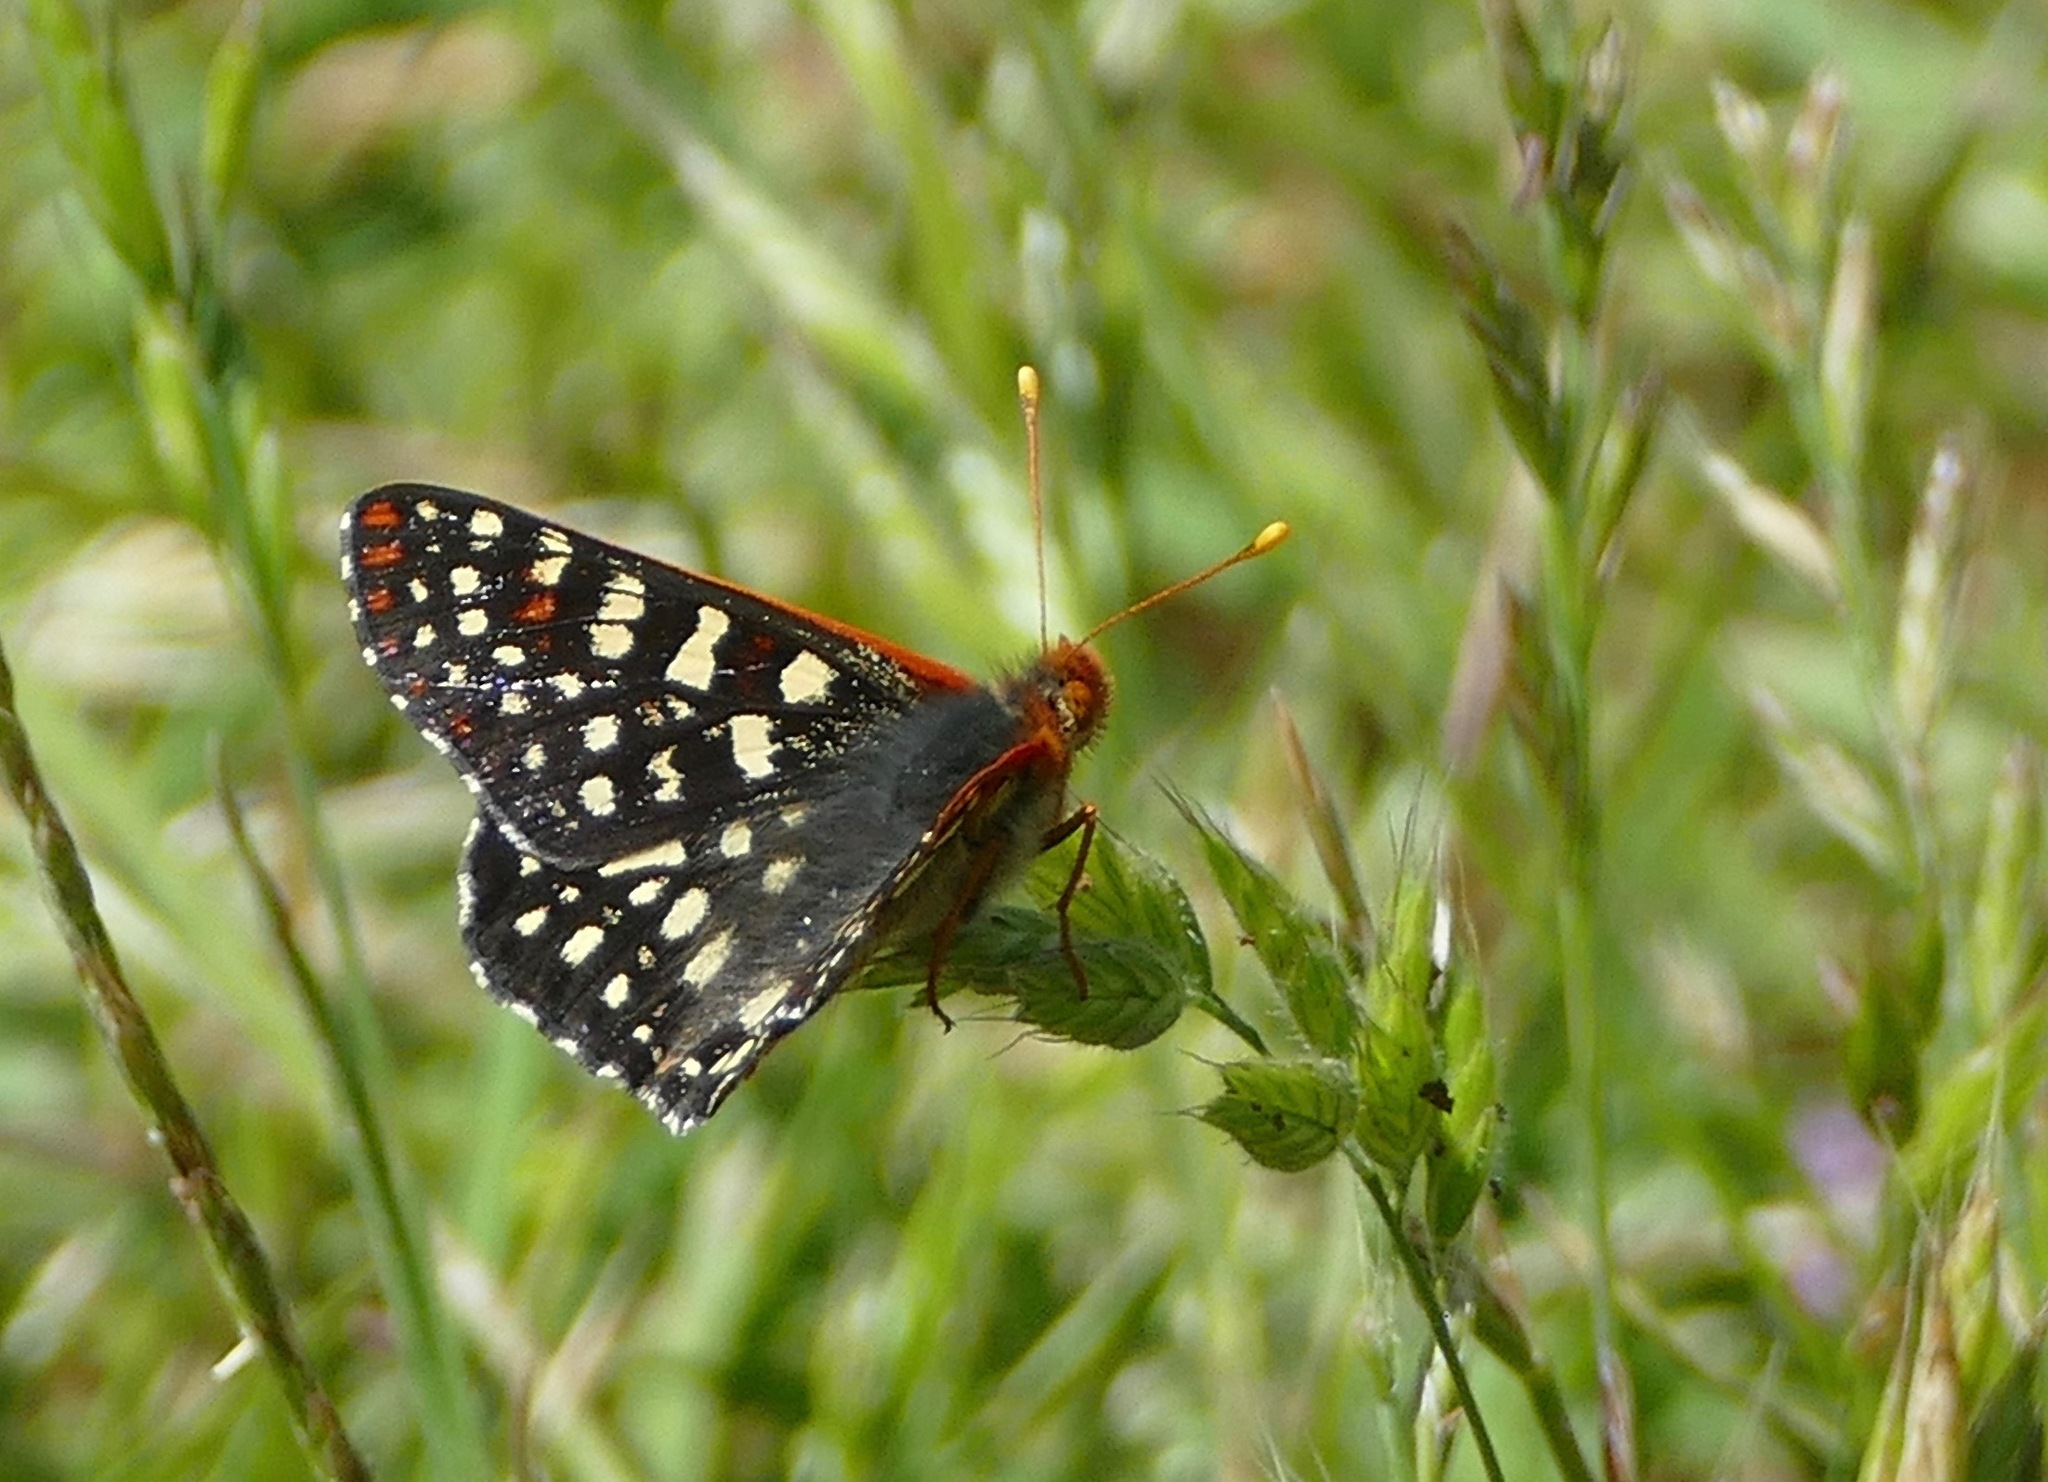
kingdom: Animalia
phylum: Arthropoda
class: Insecta
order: Lepidoptera
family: Nymphalidae
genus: Occidryas
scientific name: Occidryas chalcedona
